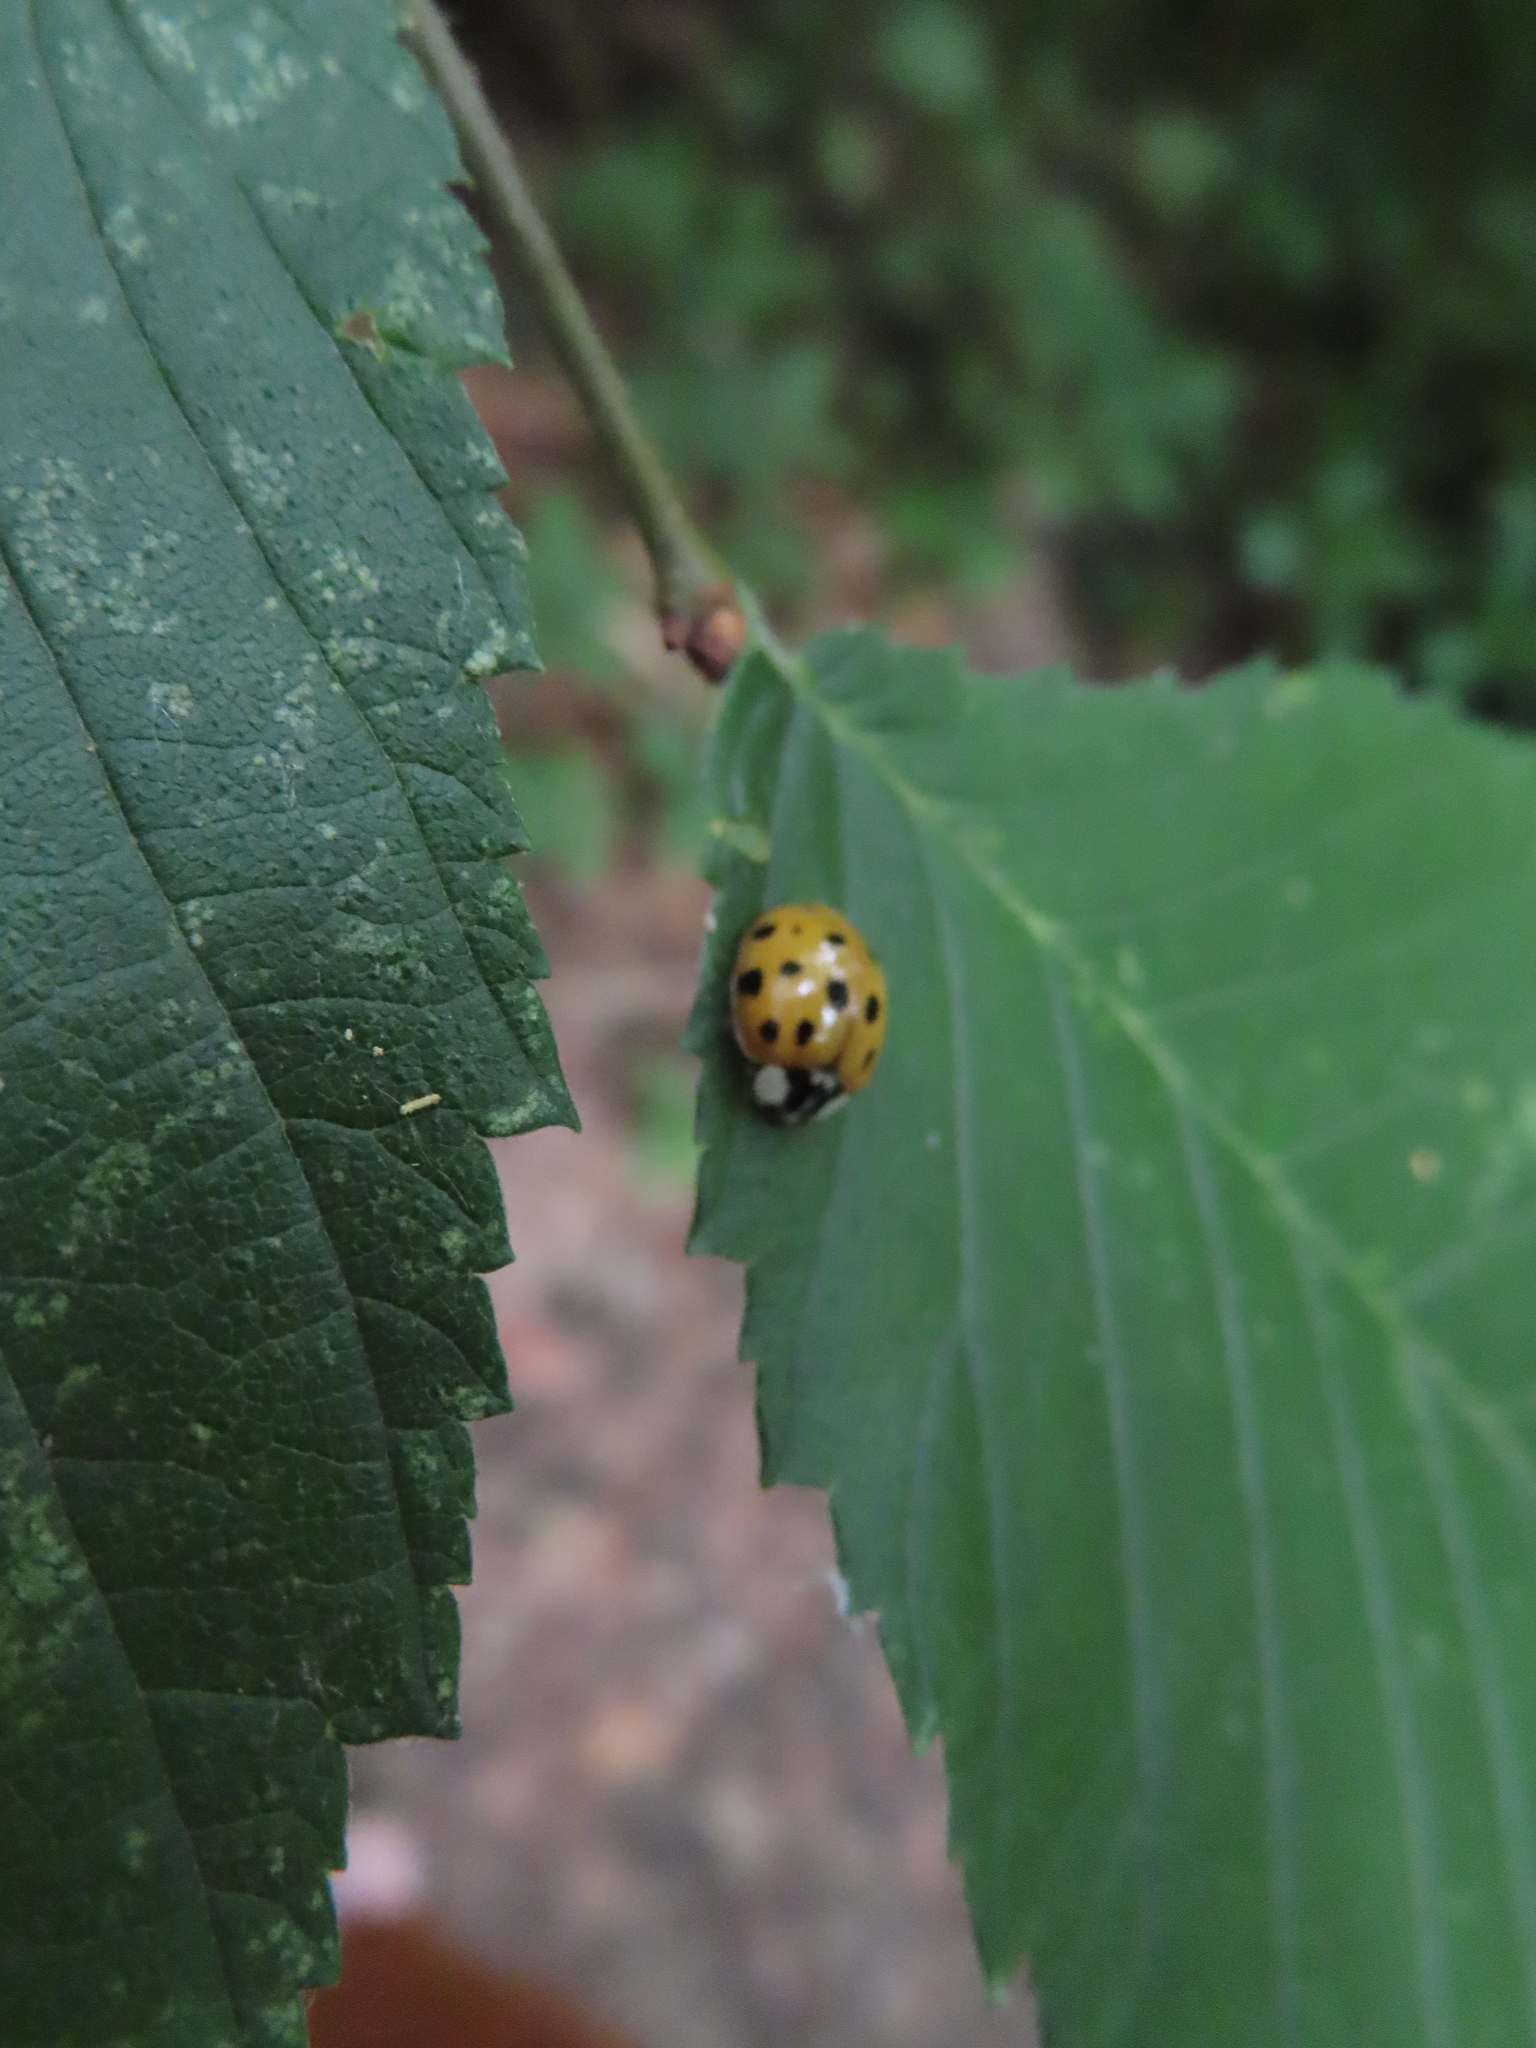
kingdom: Animalia
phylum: Arthropoda
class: Insecta
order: Coleoptera
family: Coccinellidae
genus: Harmonia
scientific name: Harmonia axyridis
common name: Harlequin ladybird
